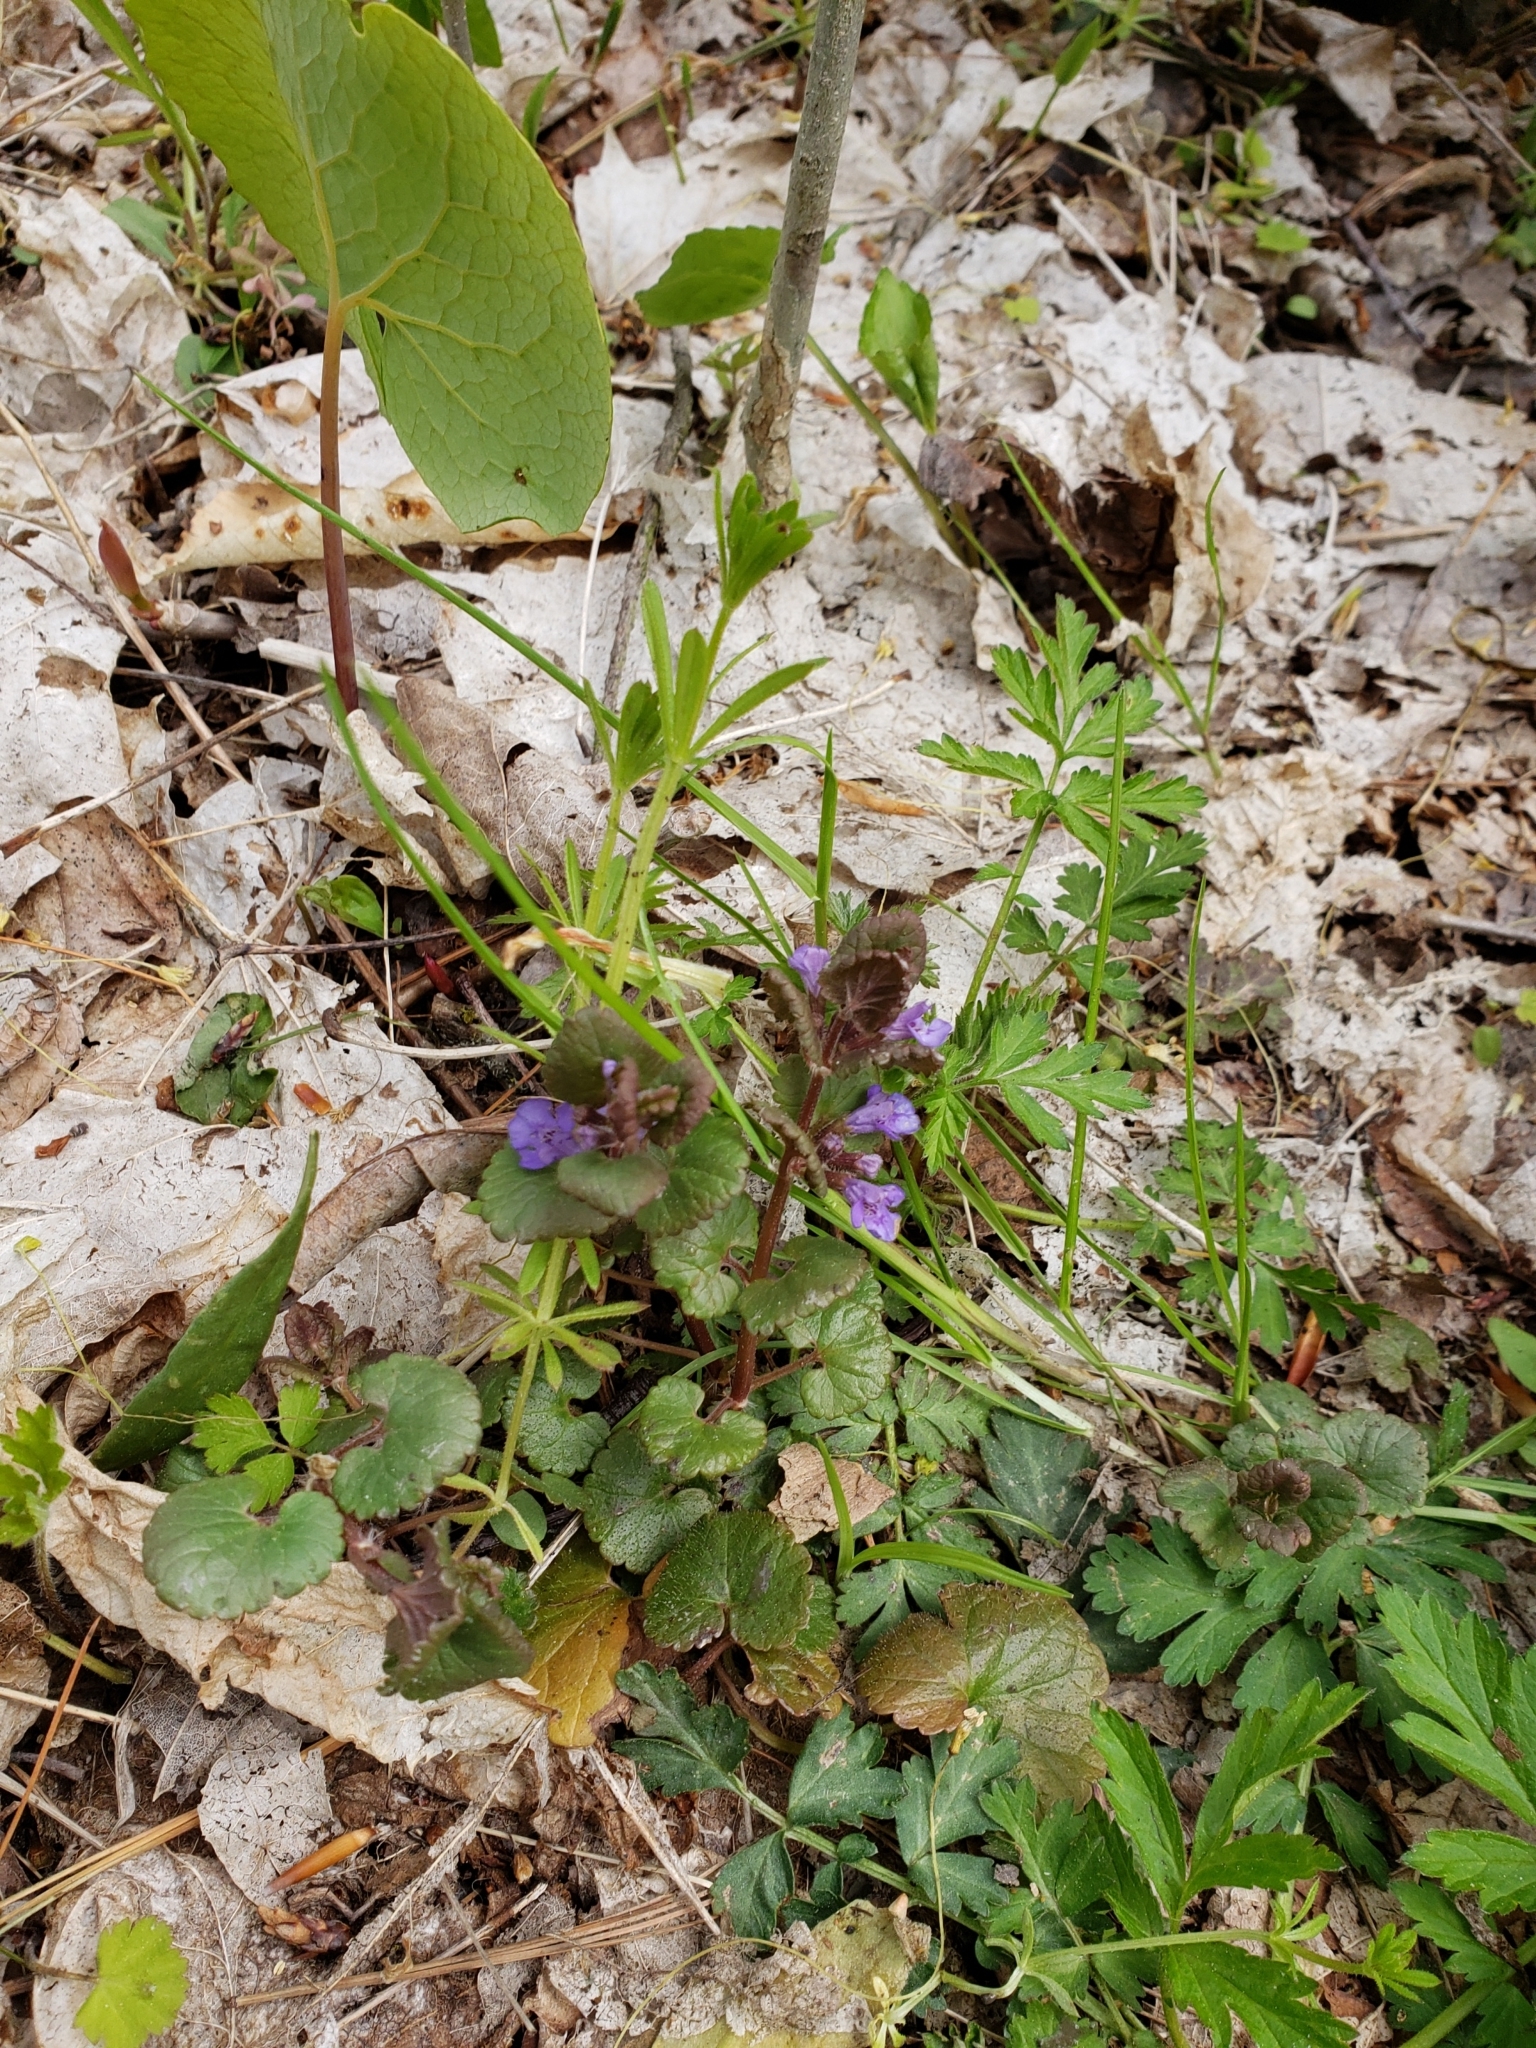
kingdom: Plantae
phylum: Tracheophyta
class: Magnoliopsida
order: Lamiales
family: Lamiaceae
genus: Glechoma
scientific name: Glechoma hederacea
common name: Ground ivy
